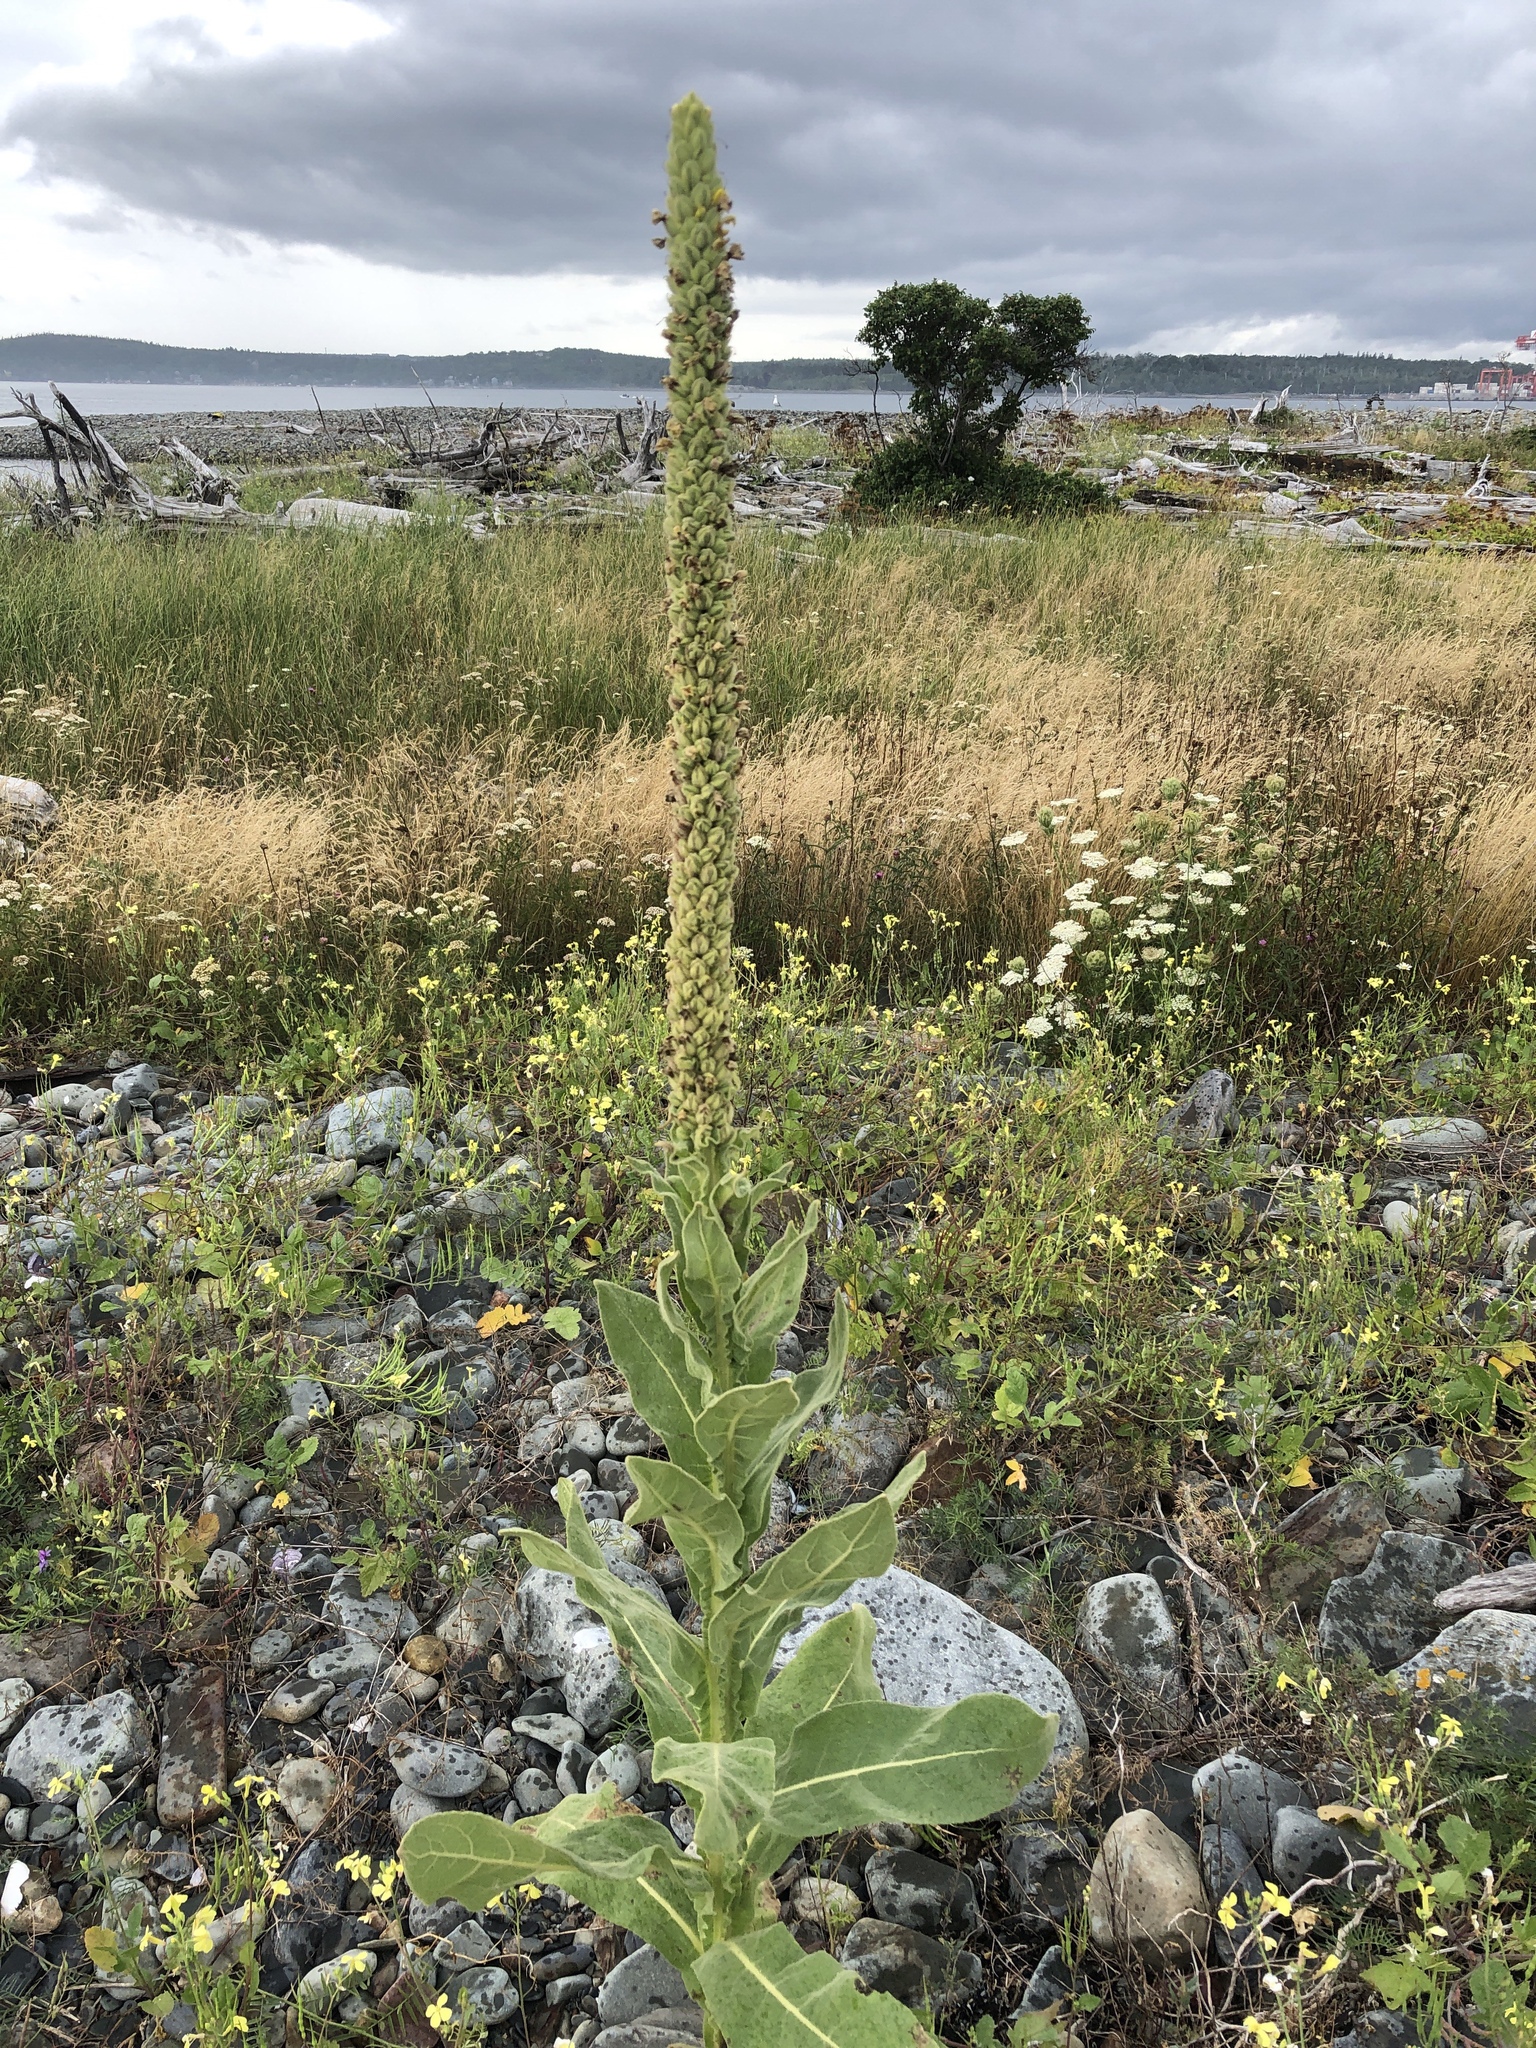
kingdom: Plantae
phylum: Tracheophyta
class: Magnoliopsida
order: Lamiales
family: Scrophulariaceae
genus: Verbascum
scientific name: Verbascum thapsus
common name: Common mullein
